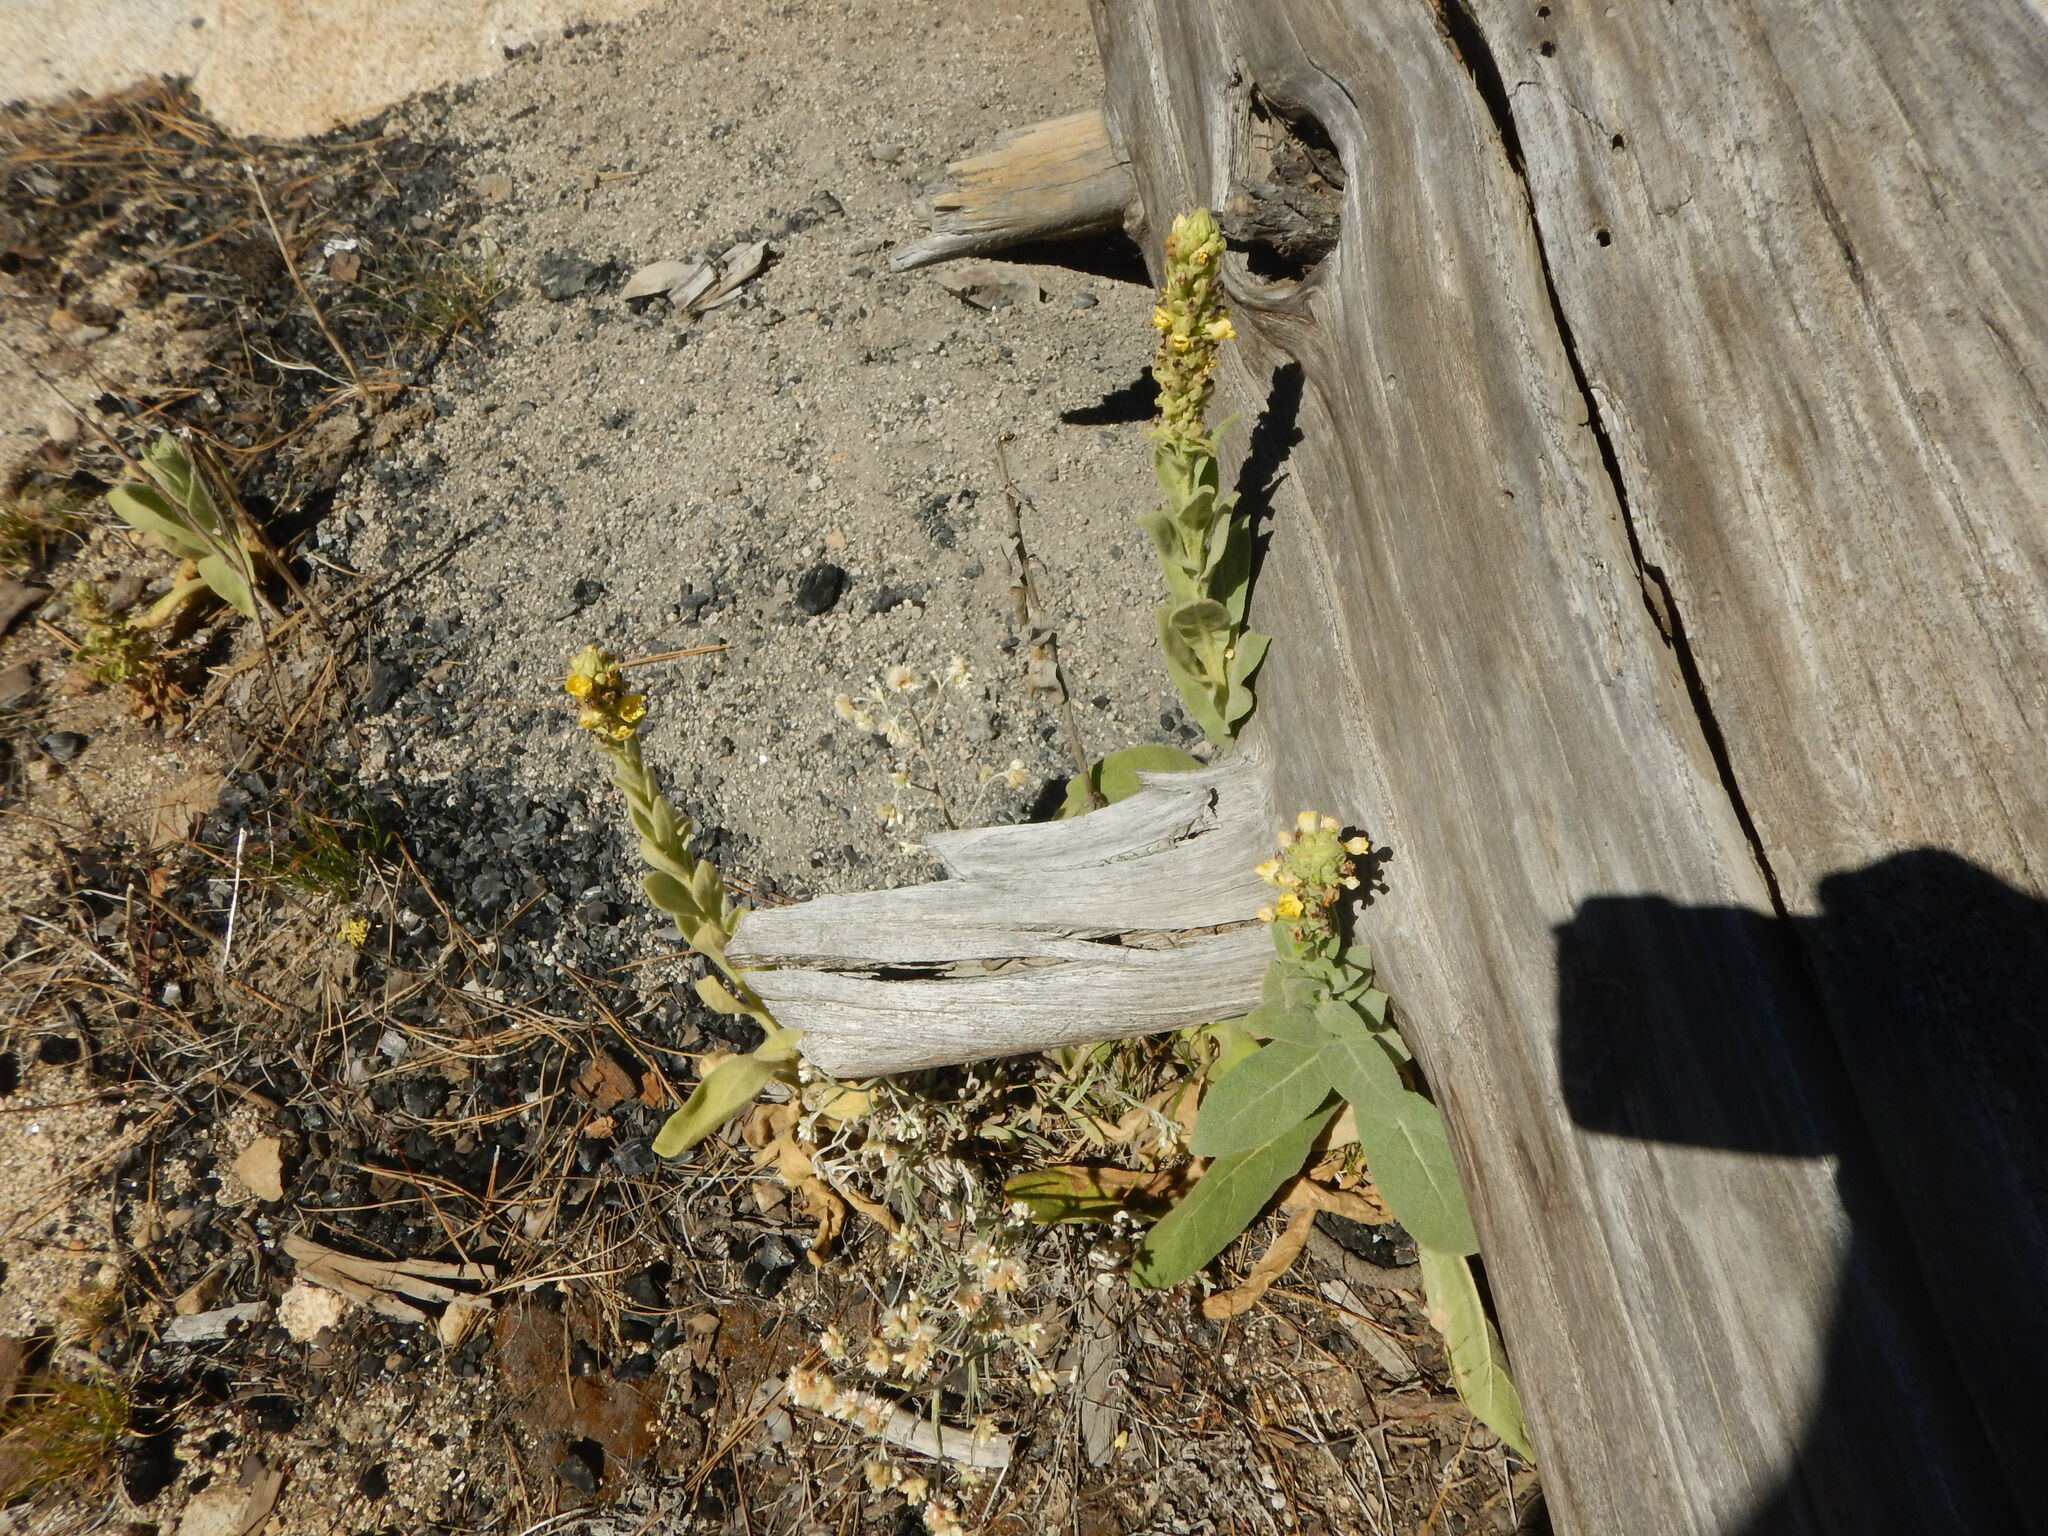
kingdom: Plantae
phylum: Tracheophyta
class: Magnoliopsida
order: Lamiales
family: Scrophulariaceae
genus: Verbascum
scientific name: Verbascum thapsus
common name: Common mullein
